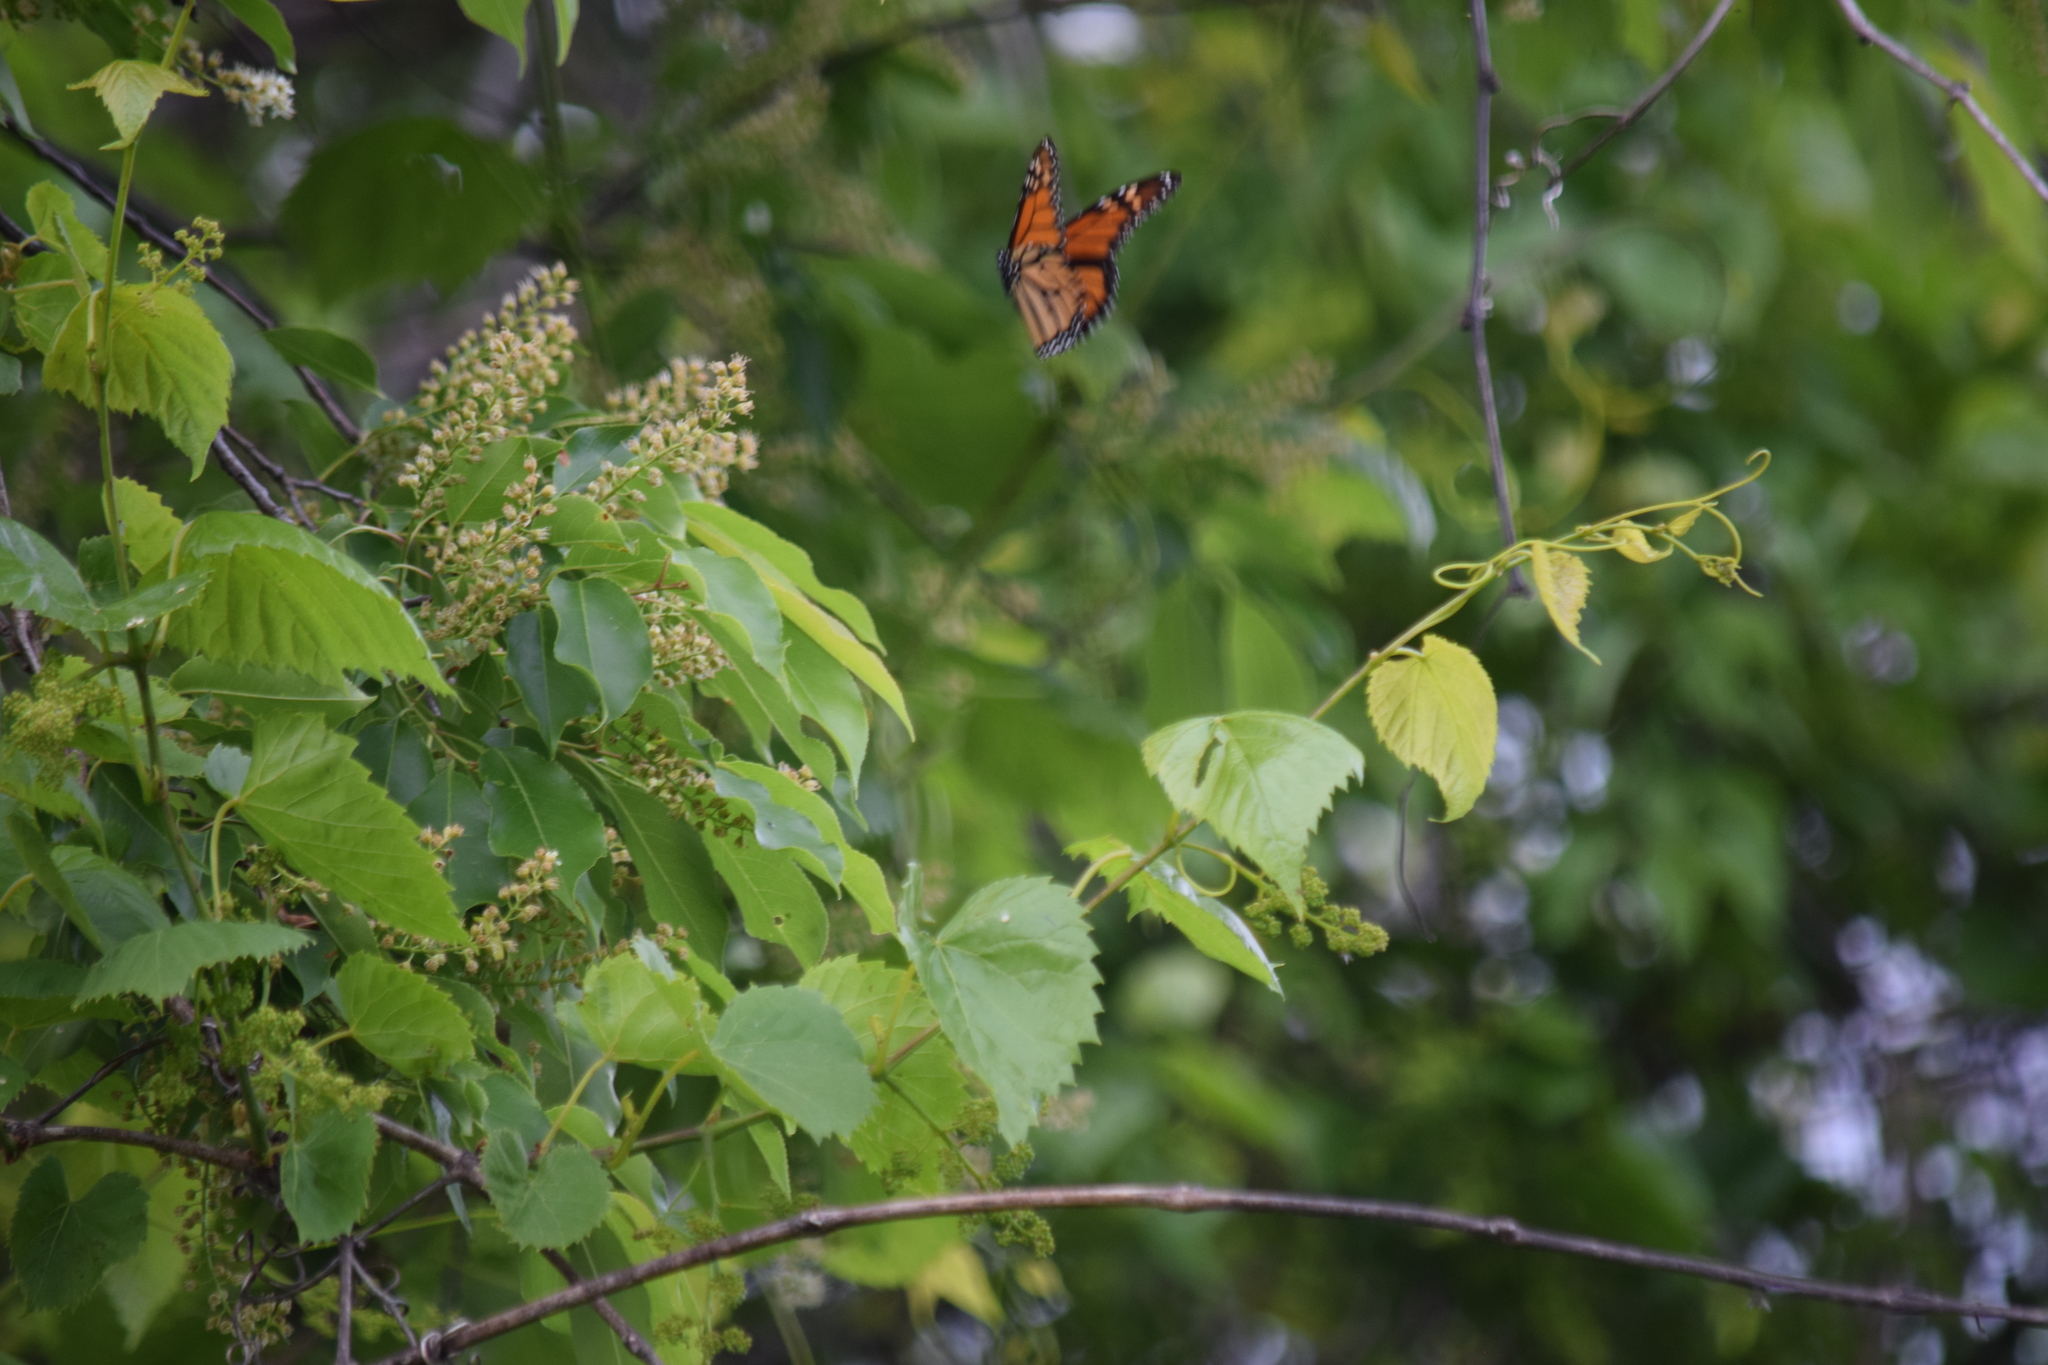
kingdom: Animalia
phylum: Arthropoda
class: Insecta
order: Lepidoptera
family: Nymphalidae
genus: Danaus
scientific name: Danaus plexippus
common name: Monarch
